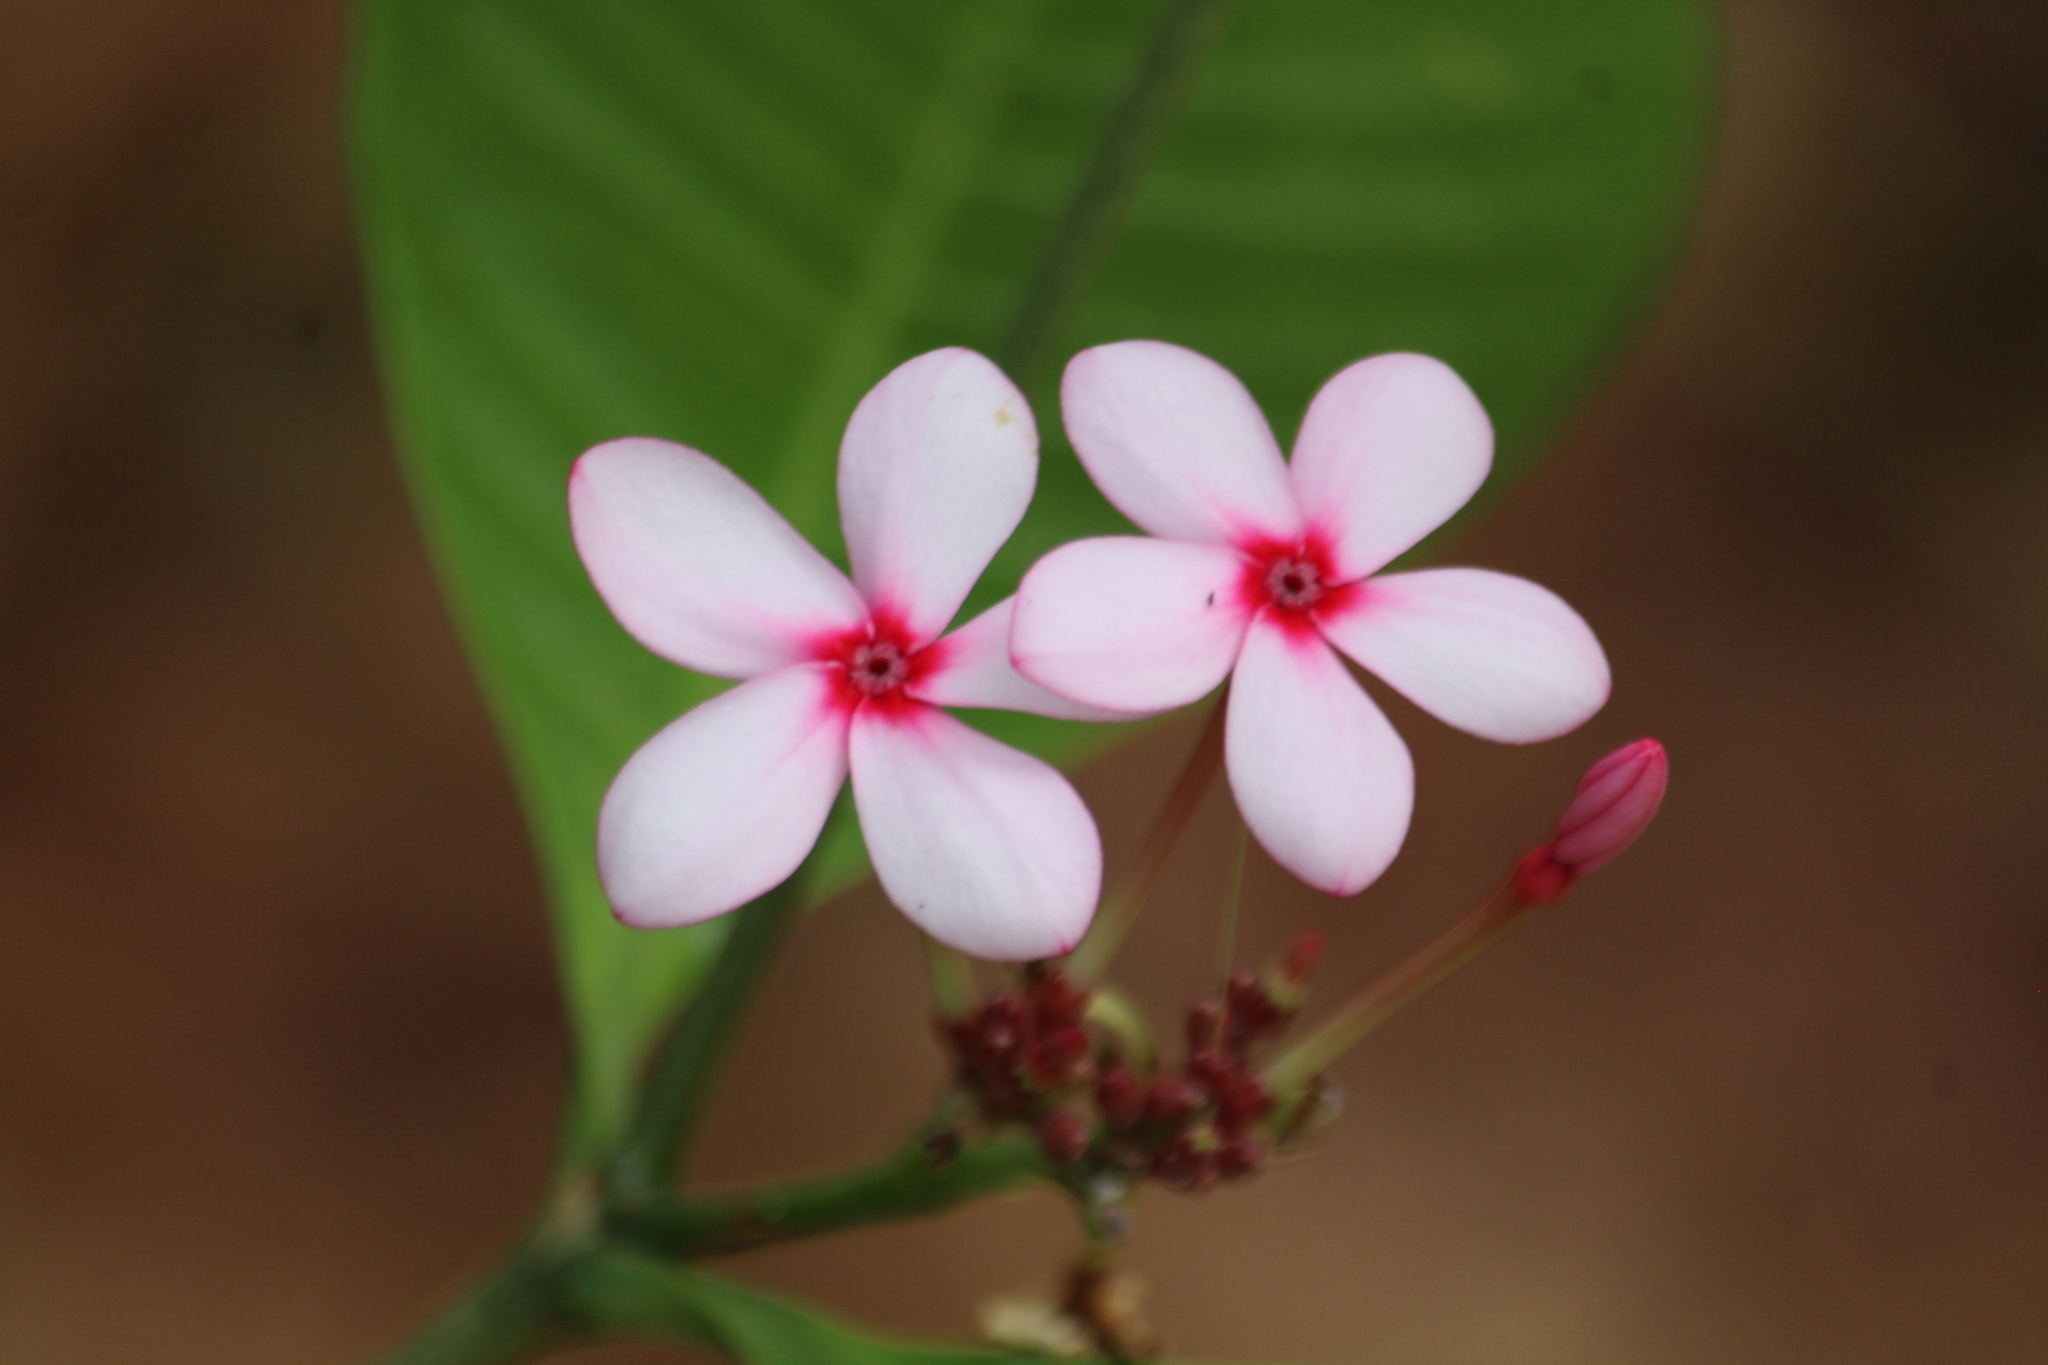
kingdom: Plantae
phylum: Tracheophyta
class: Magnoliopsida
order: Gentianales
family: Apocynaceae
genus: Kopsia
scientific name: Kopsia fruticosa
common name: Shrub-vinca
